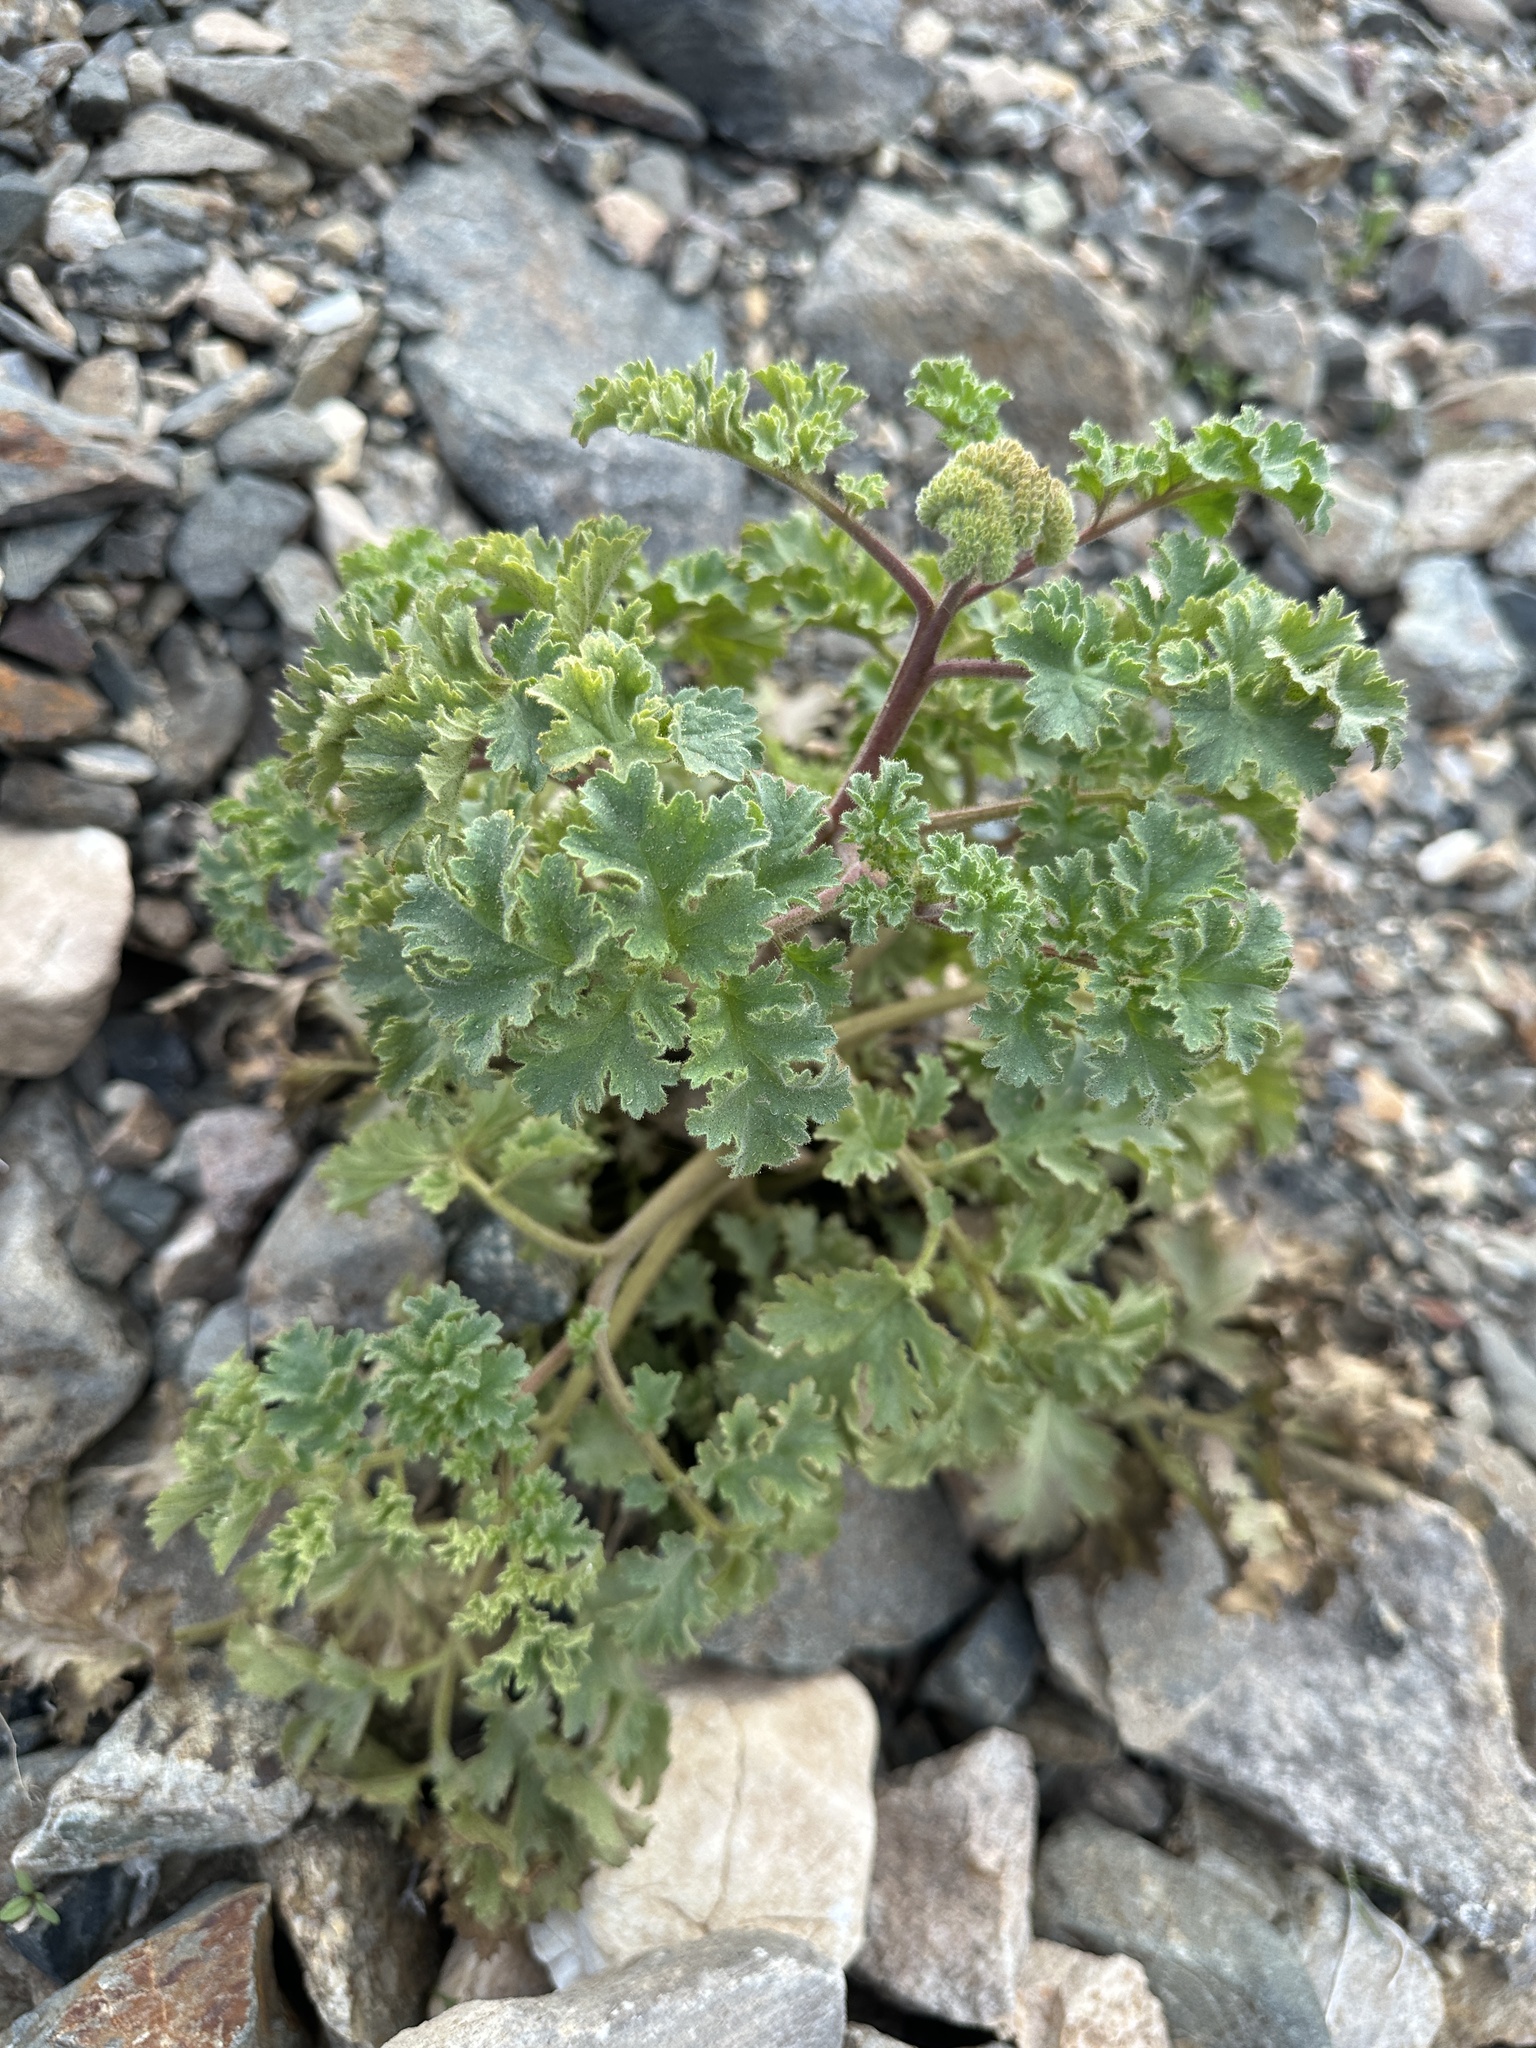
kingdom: Plantae
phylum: Tracheophyta
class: Magnoliopsida
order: Boraginales
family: Hydrophyllaceae
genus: Phacelia
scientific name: Phacelia pedicellata
